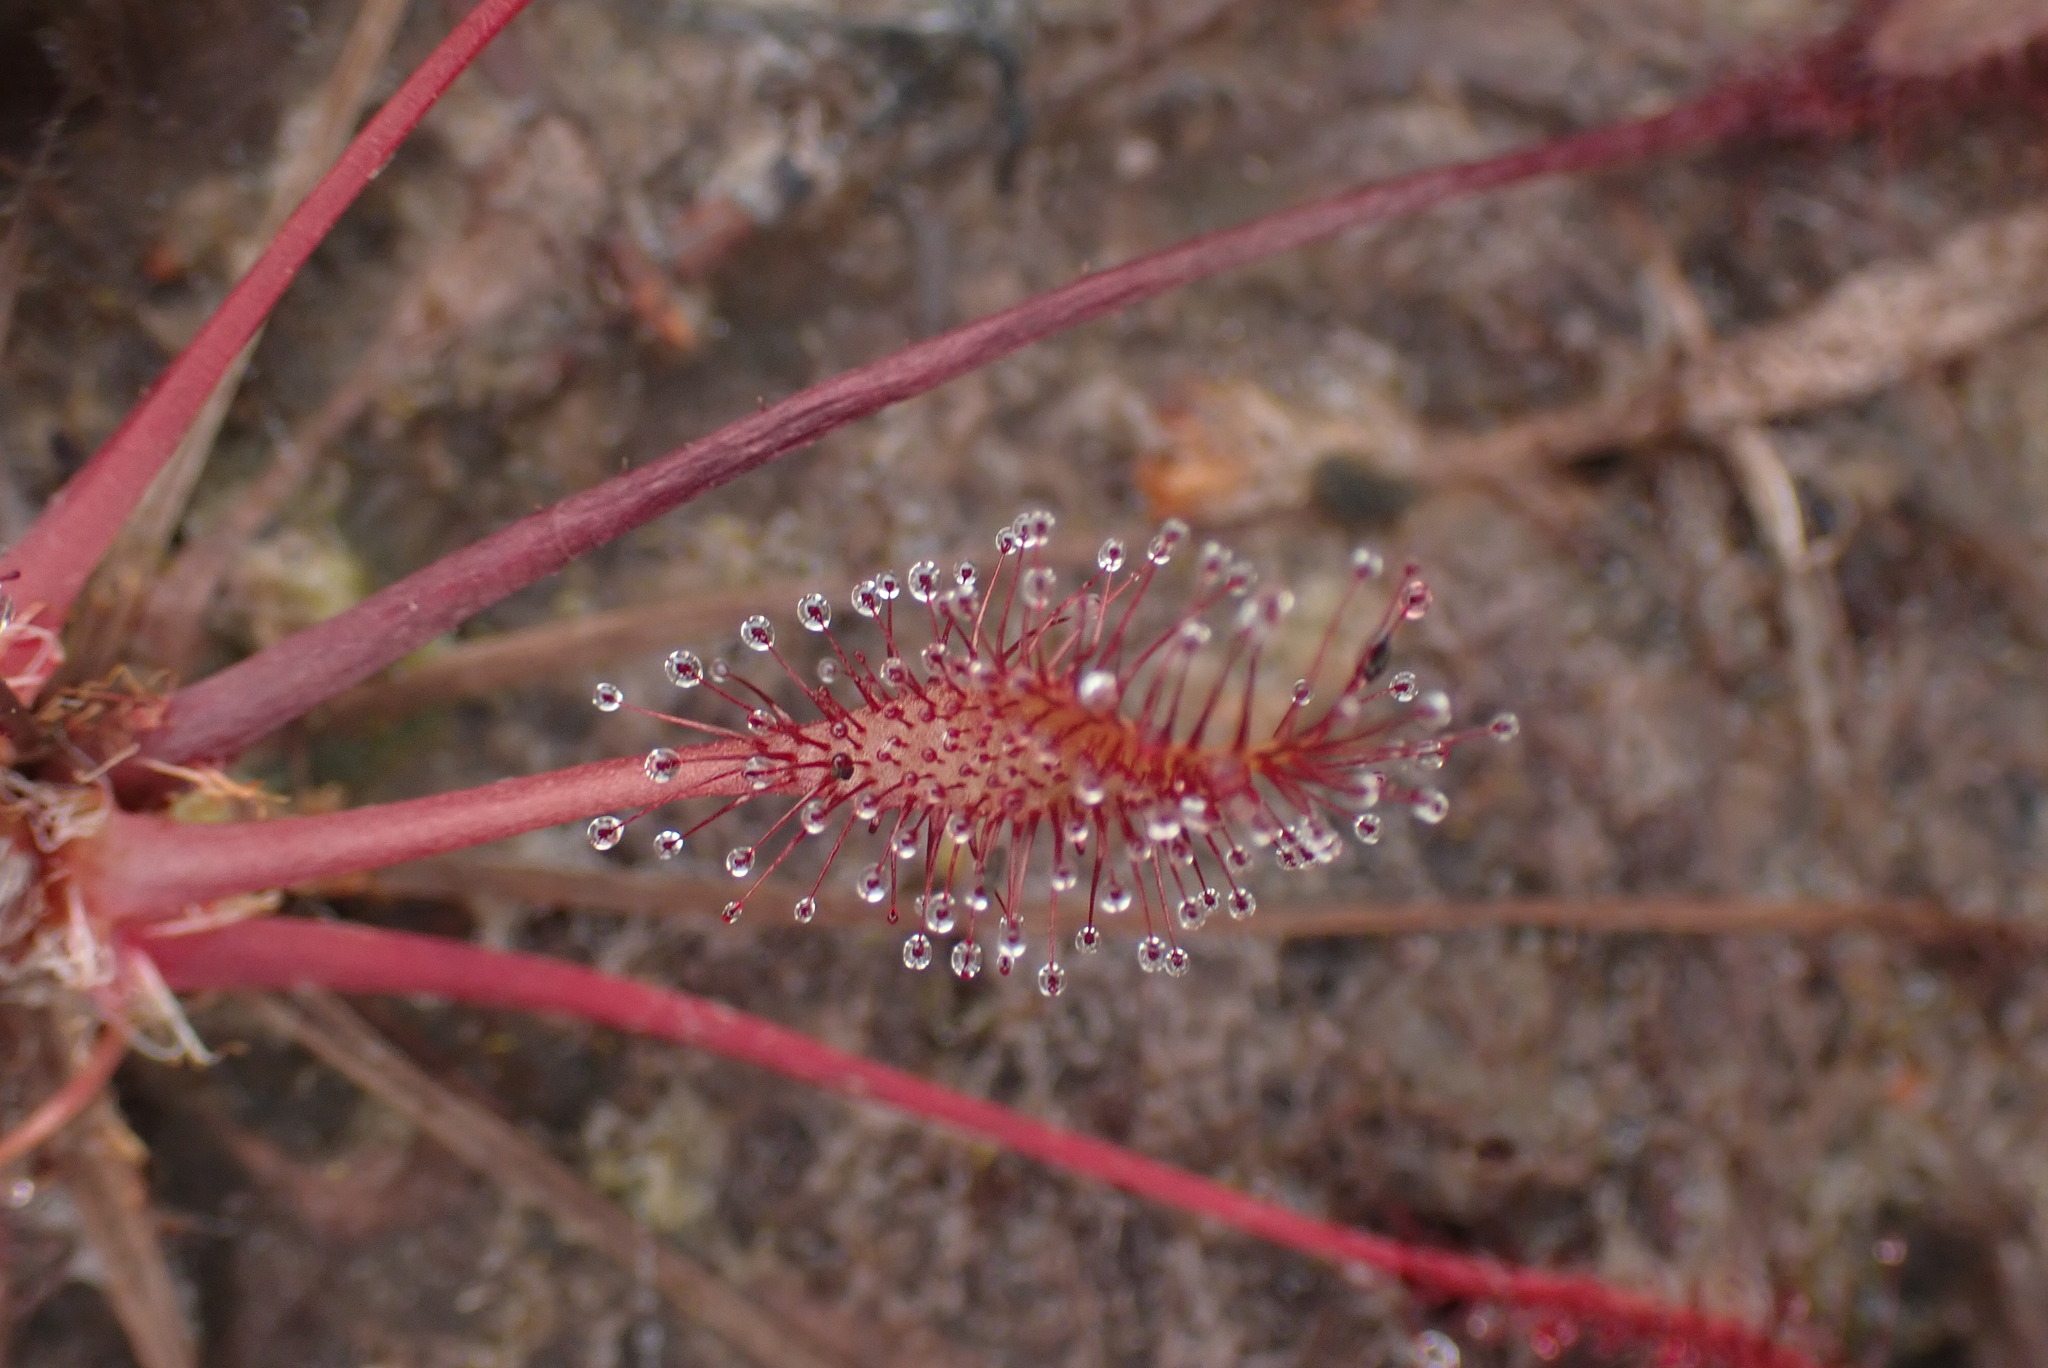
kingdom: Plantae
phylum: Tracheophyta
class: Magnoliopsida
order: Caryophyllales
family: Droseraceae
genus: Drosera
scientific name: Drosera anglica
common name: Great sundew
